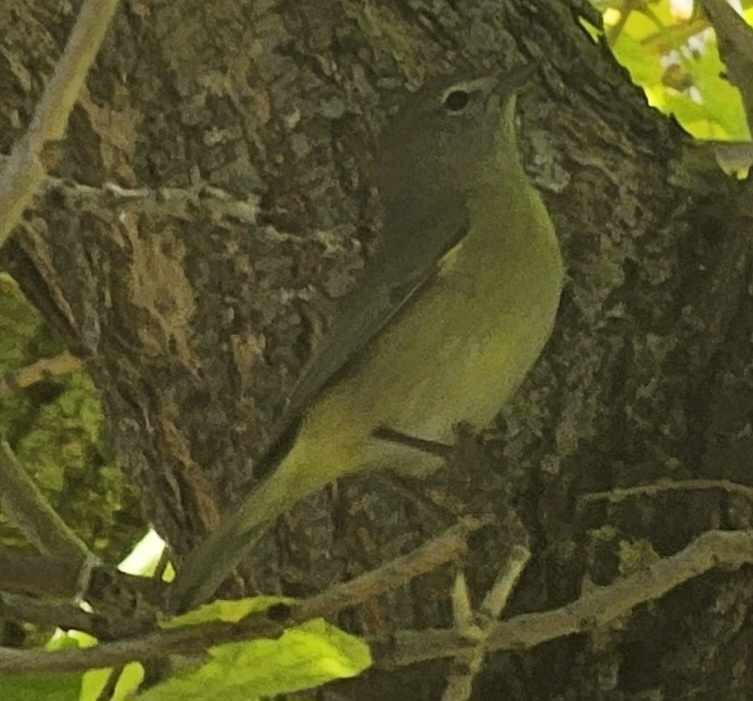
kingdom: Animalia
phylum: Chordata
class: Aves
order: Passeriformes
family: Parulidae
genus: Leiothlypis
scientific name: Leiothlypis celata
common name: Orange-crowned warbler
